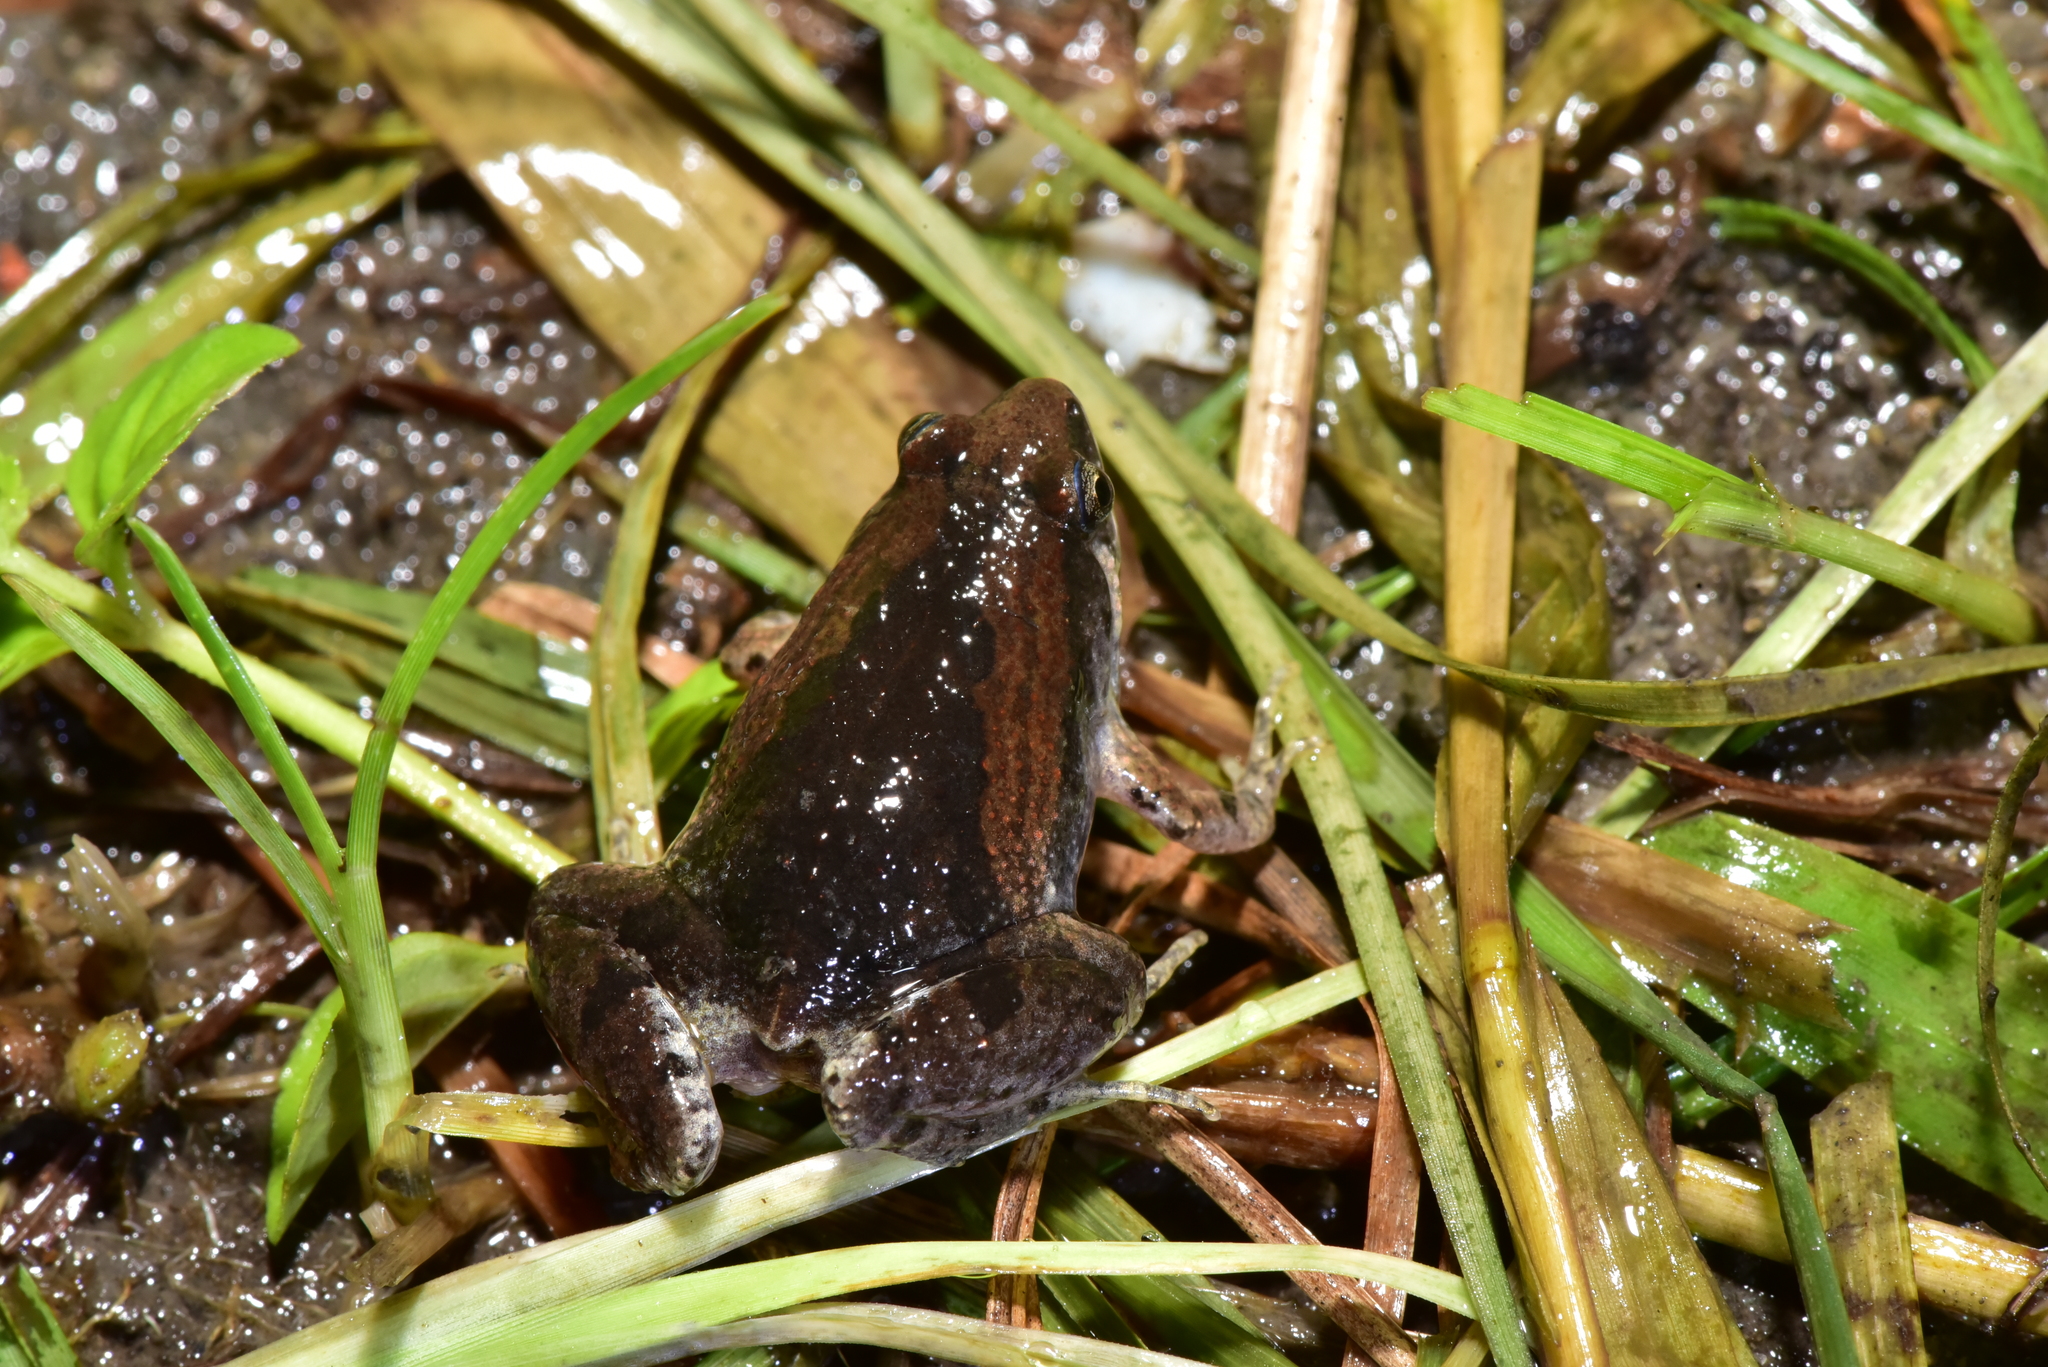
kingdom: Animalia
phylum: Chordata
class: Amphibia
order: Anura
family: Microhylidae
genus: Microhyla
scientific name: Microhyla fissipes
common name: Ornate narrow-mouthed frog
